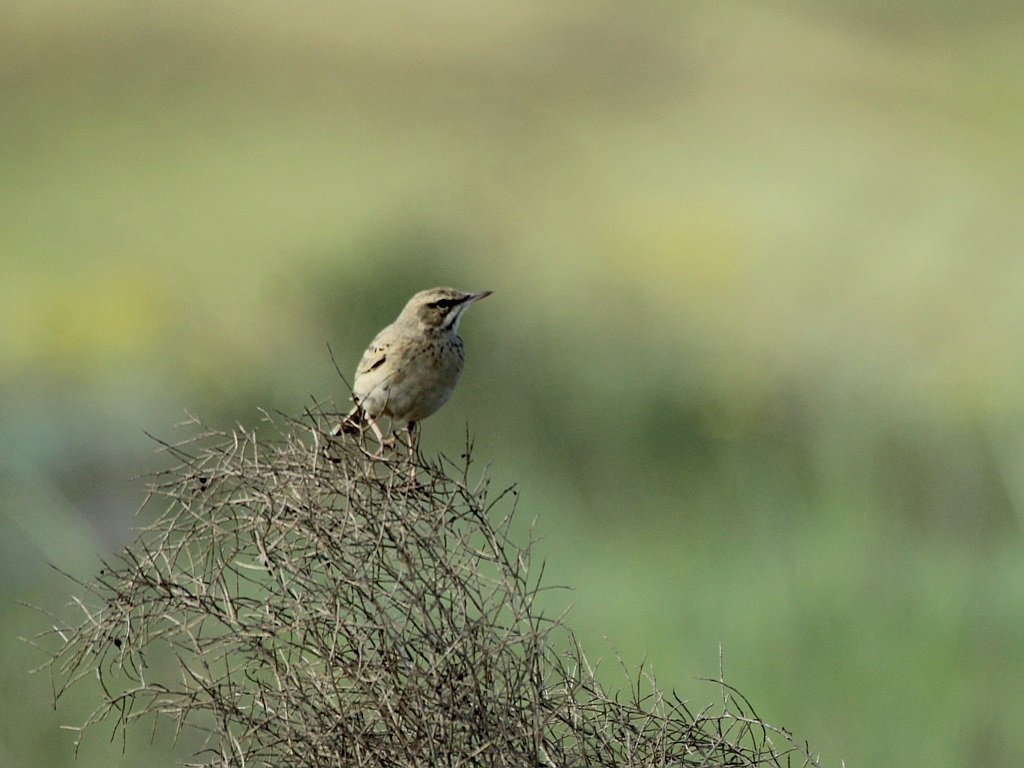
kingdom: Animalia
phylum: Chordata
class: Aves
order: Passeriformes
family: Motacillidae
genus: Anthus
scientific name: Anthus campestris
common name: Tawny pipit
